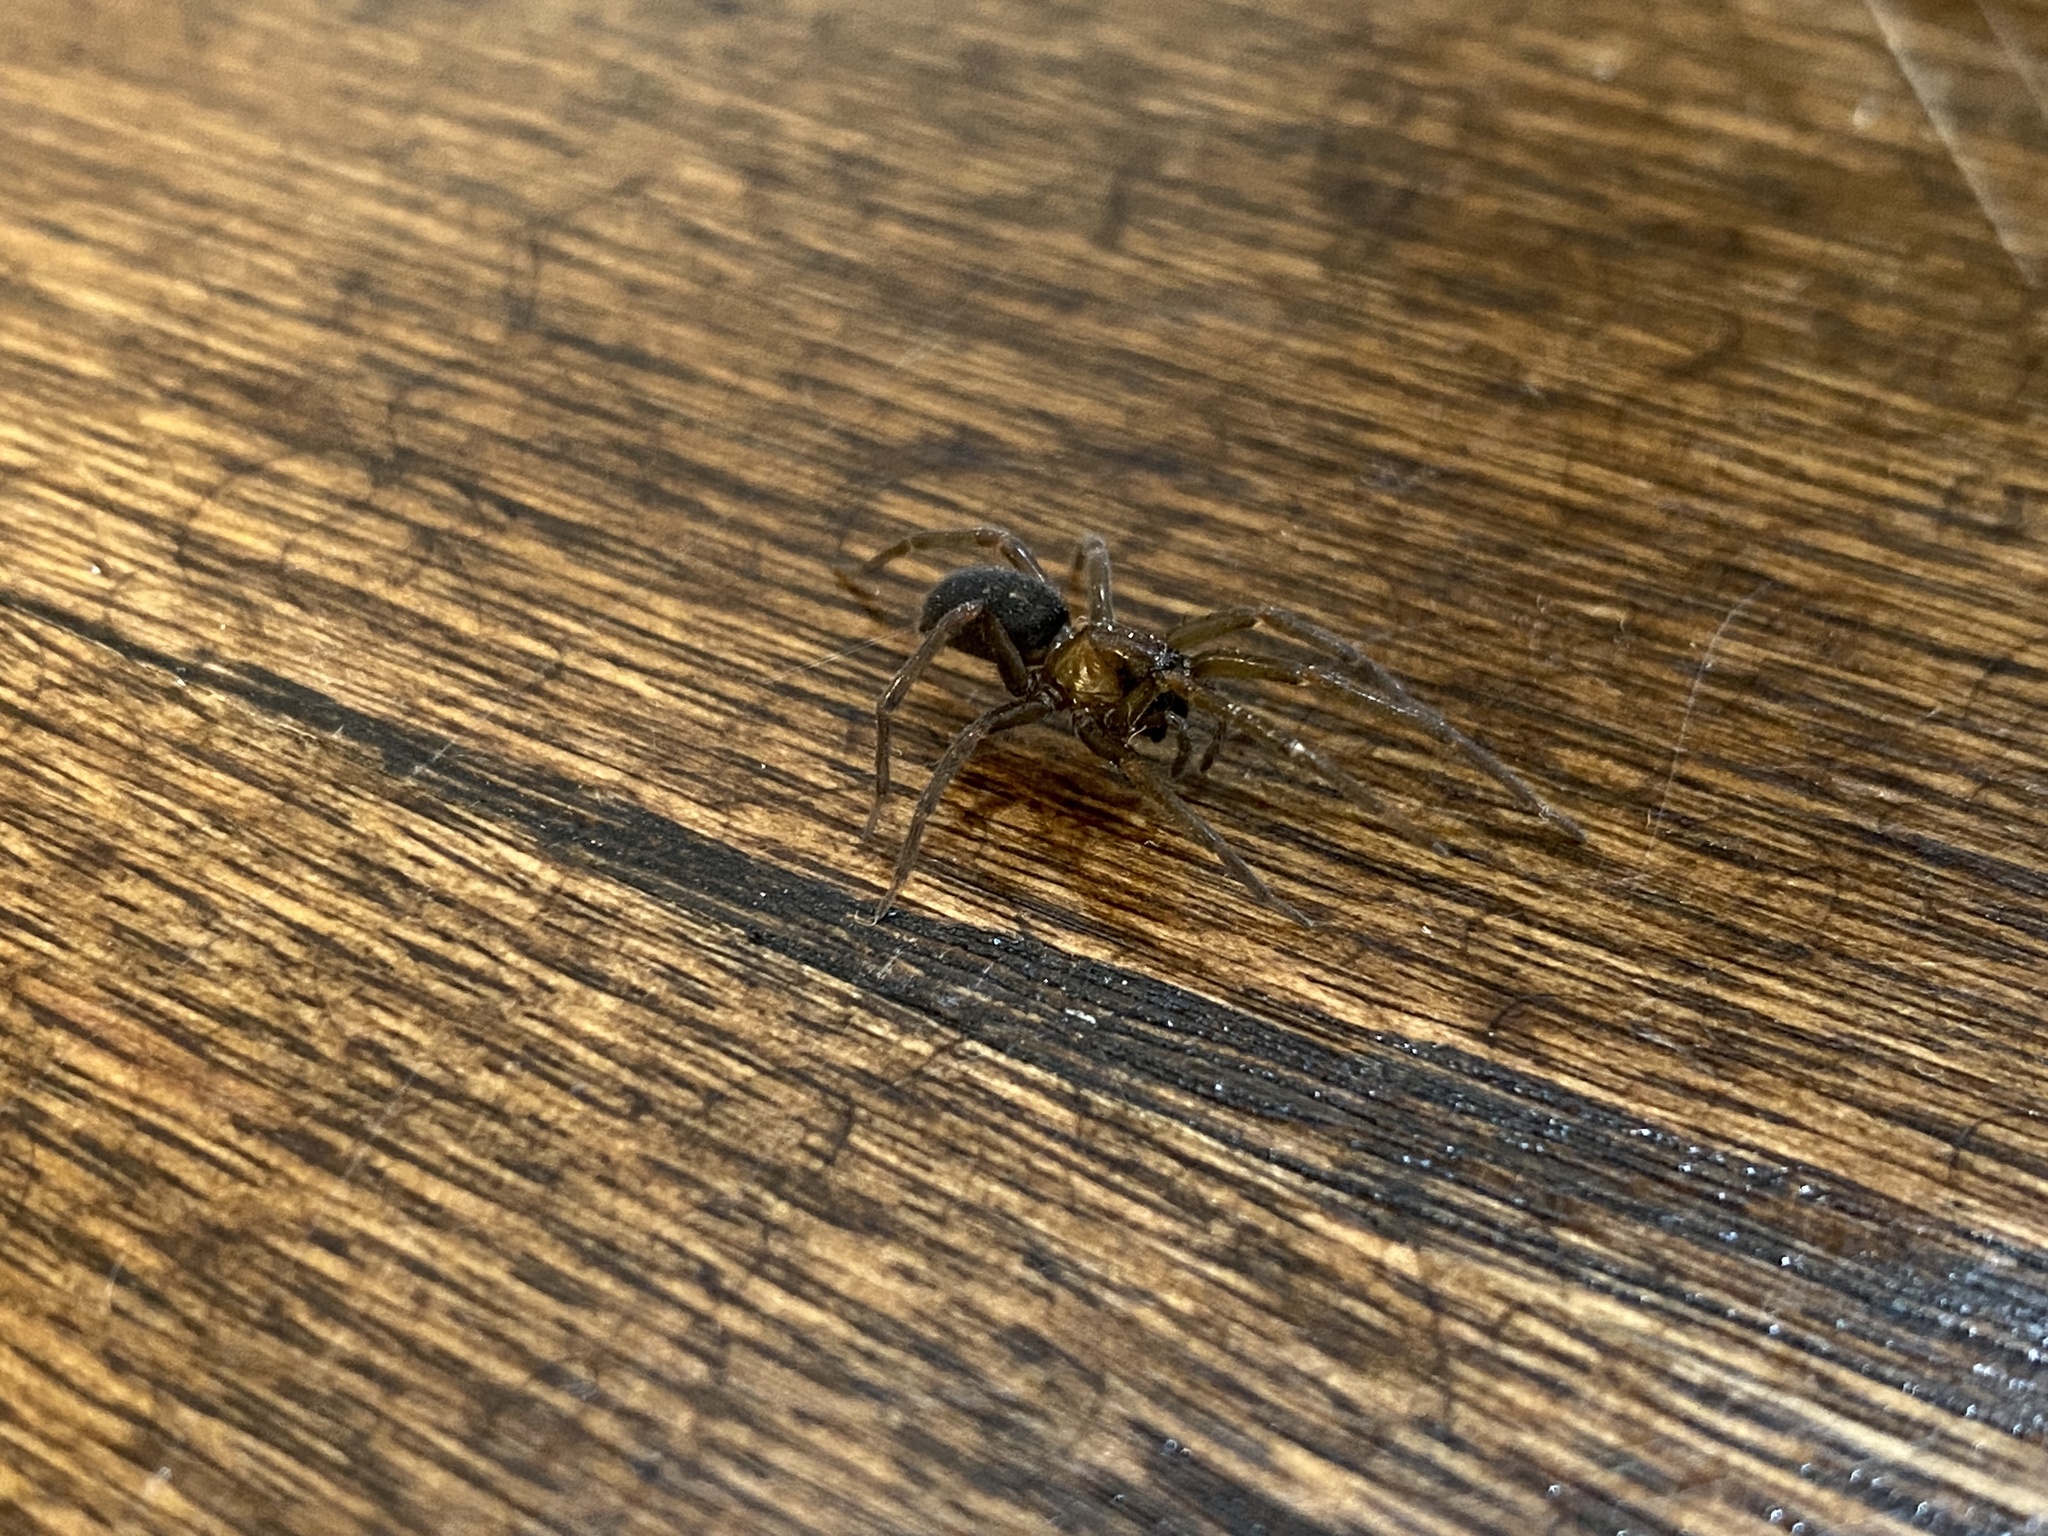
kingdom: Animalia
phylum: Arthropoda
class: Arachnida
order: Araneae
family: Desidae
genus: Metaltella
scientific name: Metaltella simoni
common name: Cribellate spider
